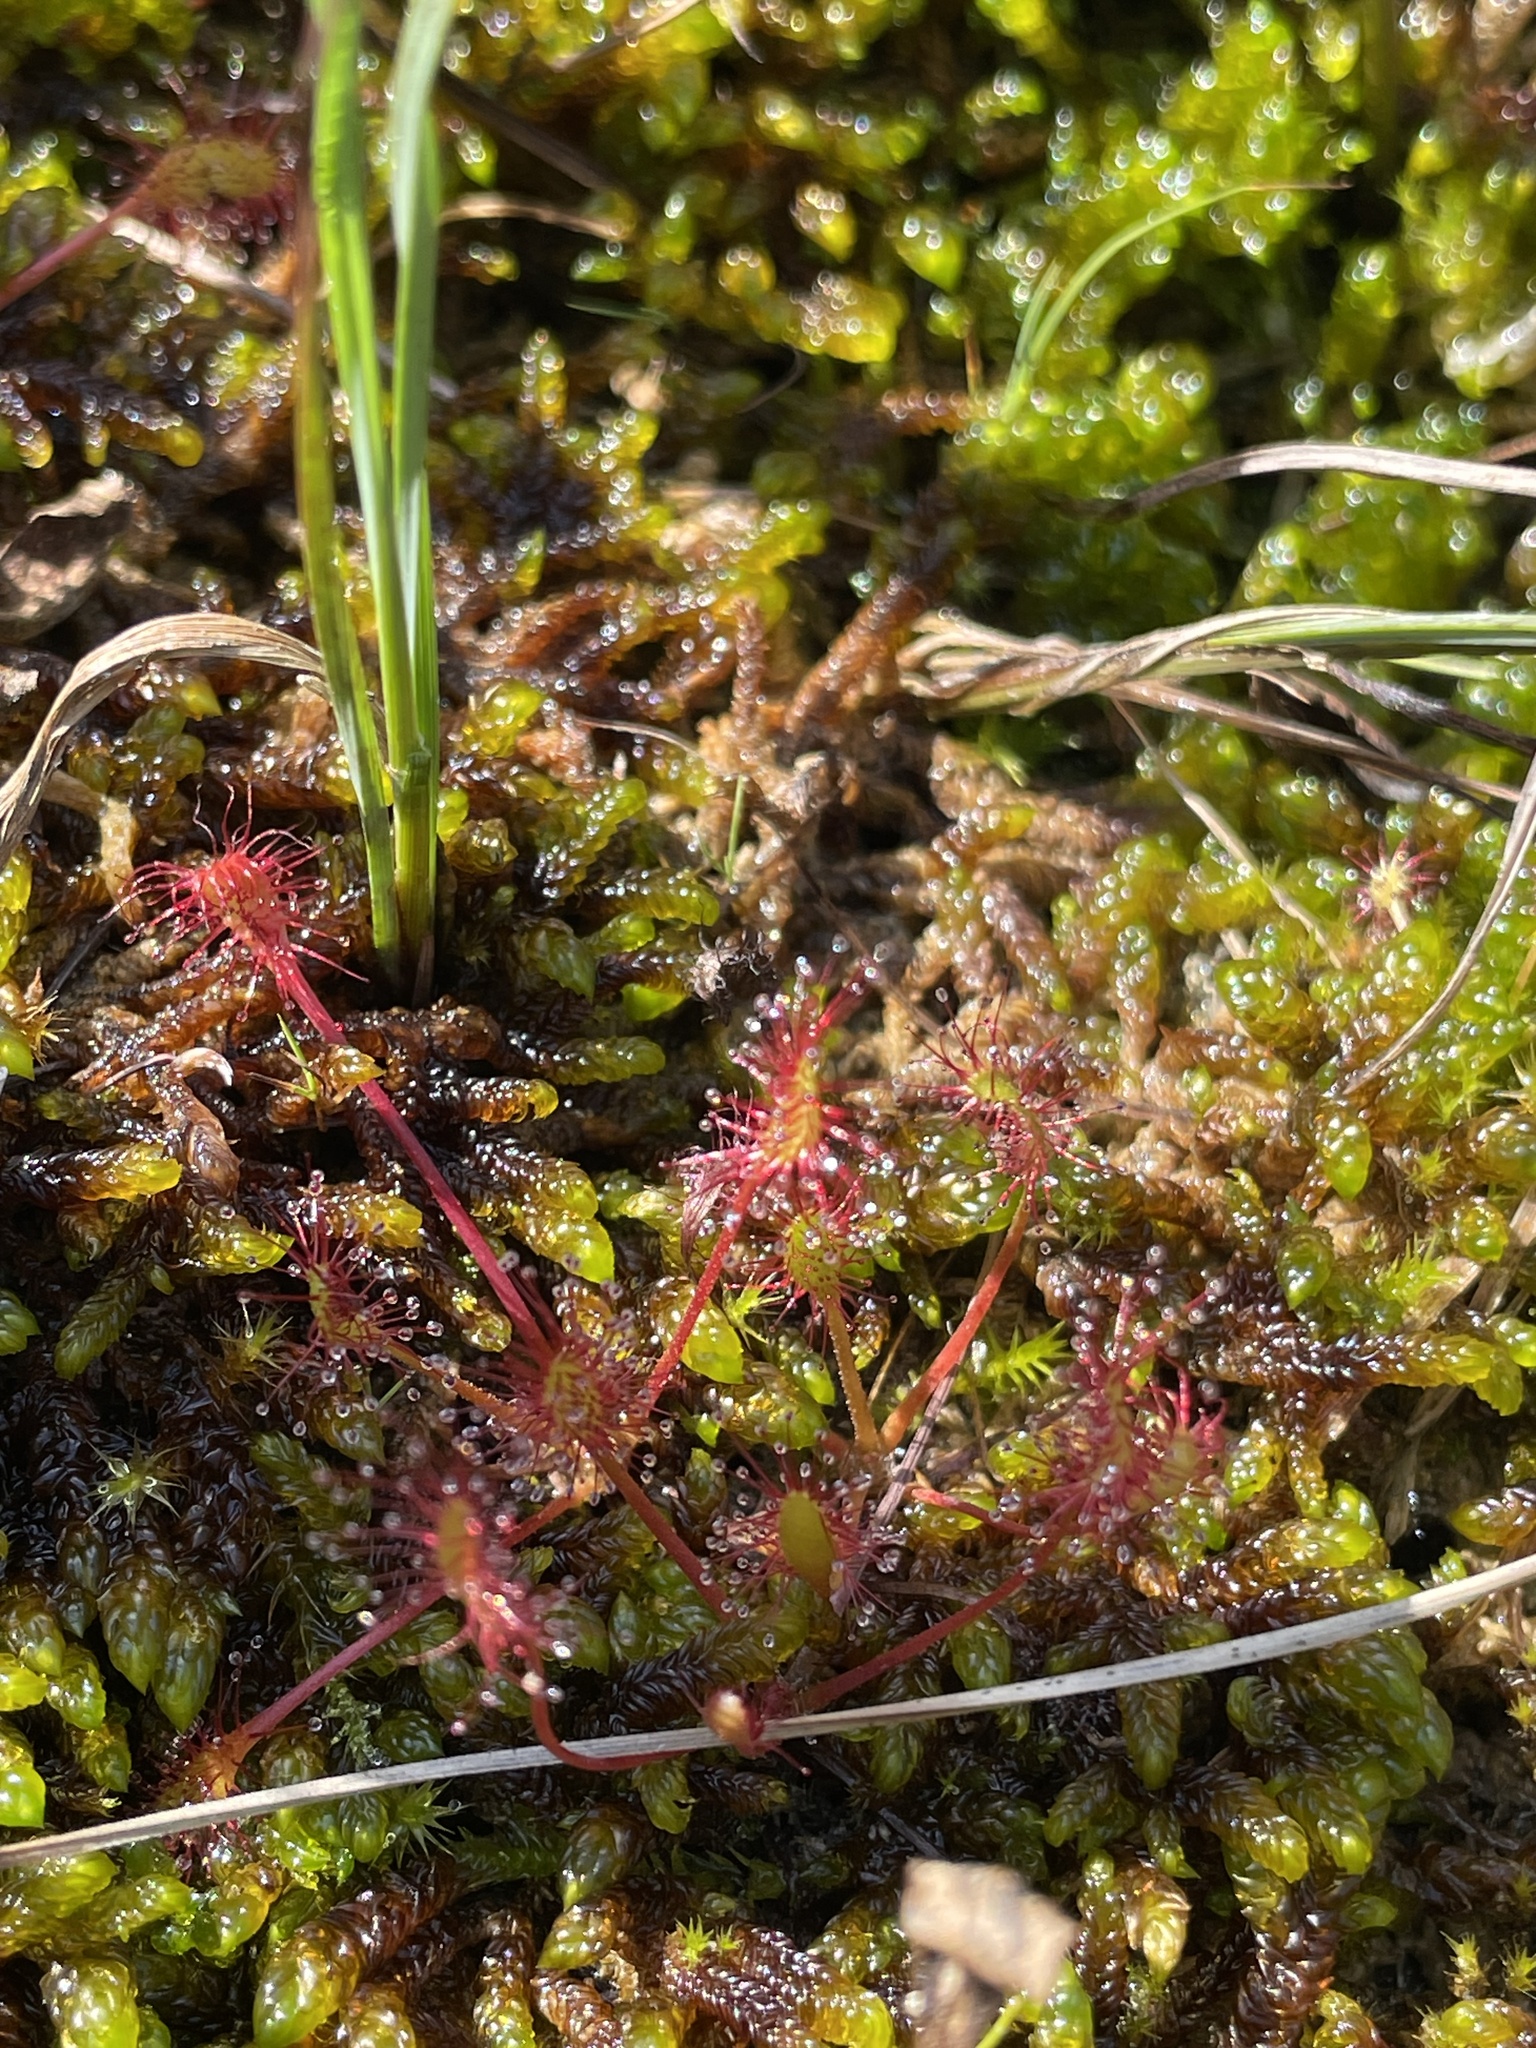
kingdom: Plantae
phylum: Tracheophyta
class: Magnoliopsida
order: Caryophyllales
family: Droseraceae
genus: Drosera
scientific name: Drosera anglica
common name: Great sundew
